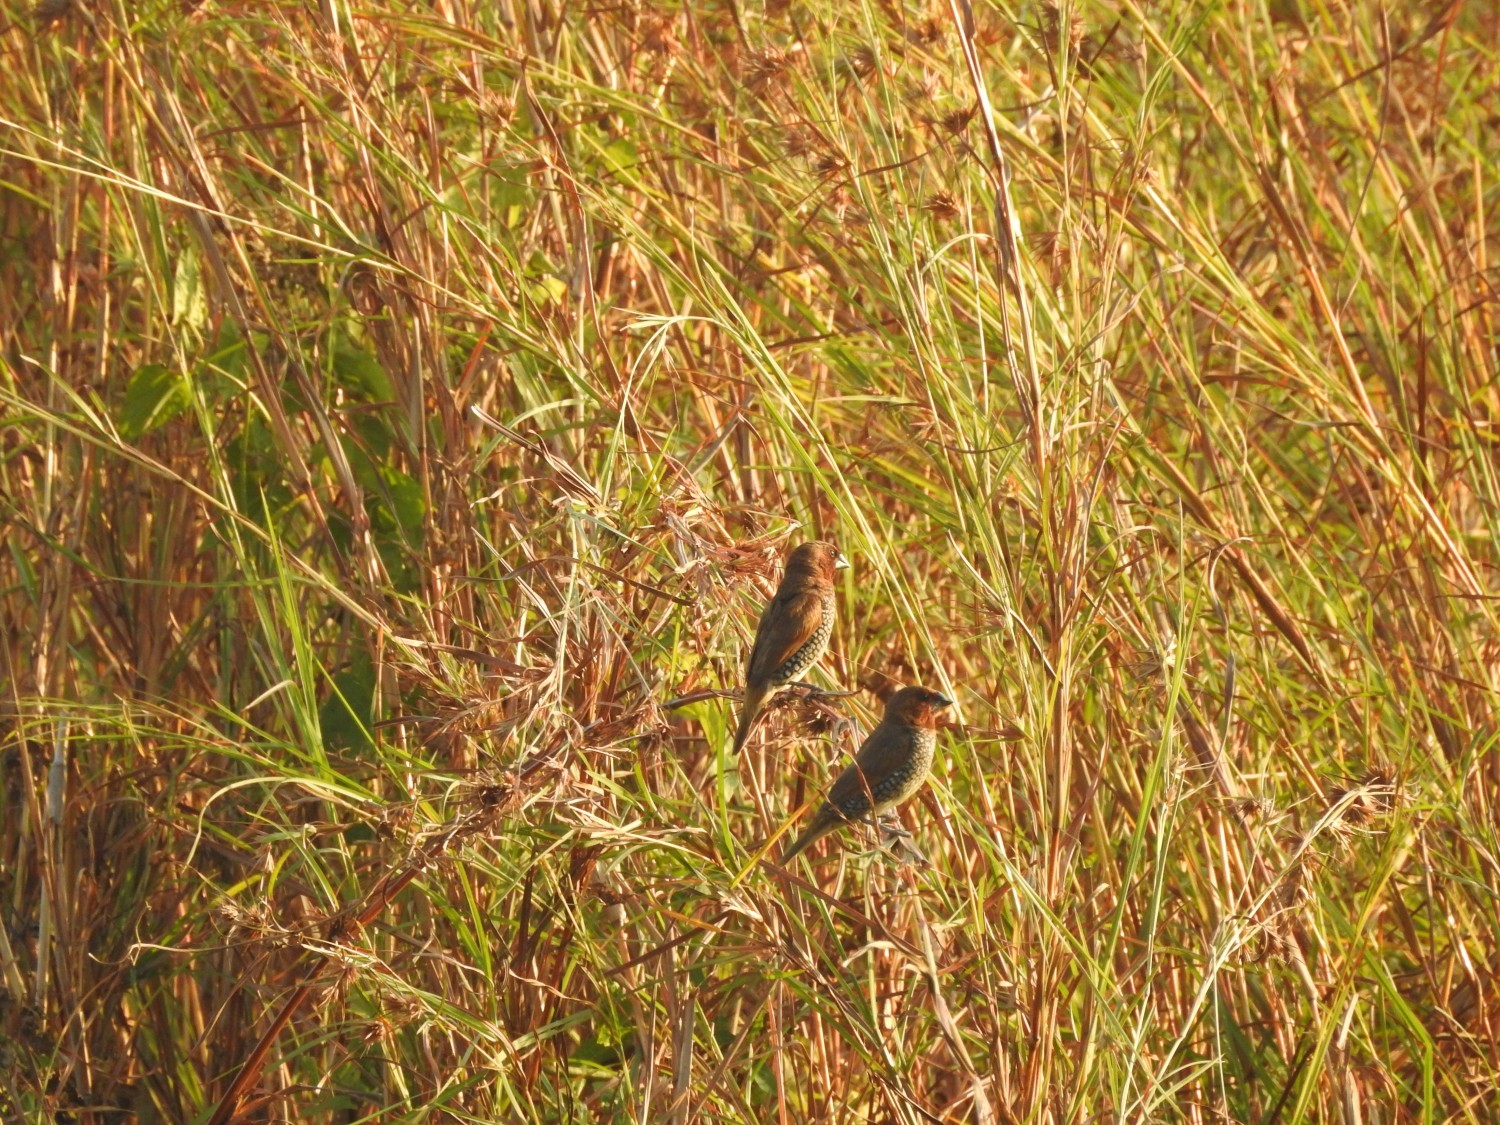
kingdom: Animalia
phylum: Chordata
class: Aves
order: Passeriformes
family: Estrildidae
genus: Lonchura
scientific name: Lonchura punctulata
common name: Scaly-breasted munia
